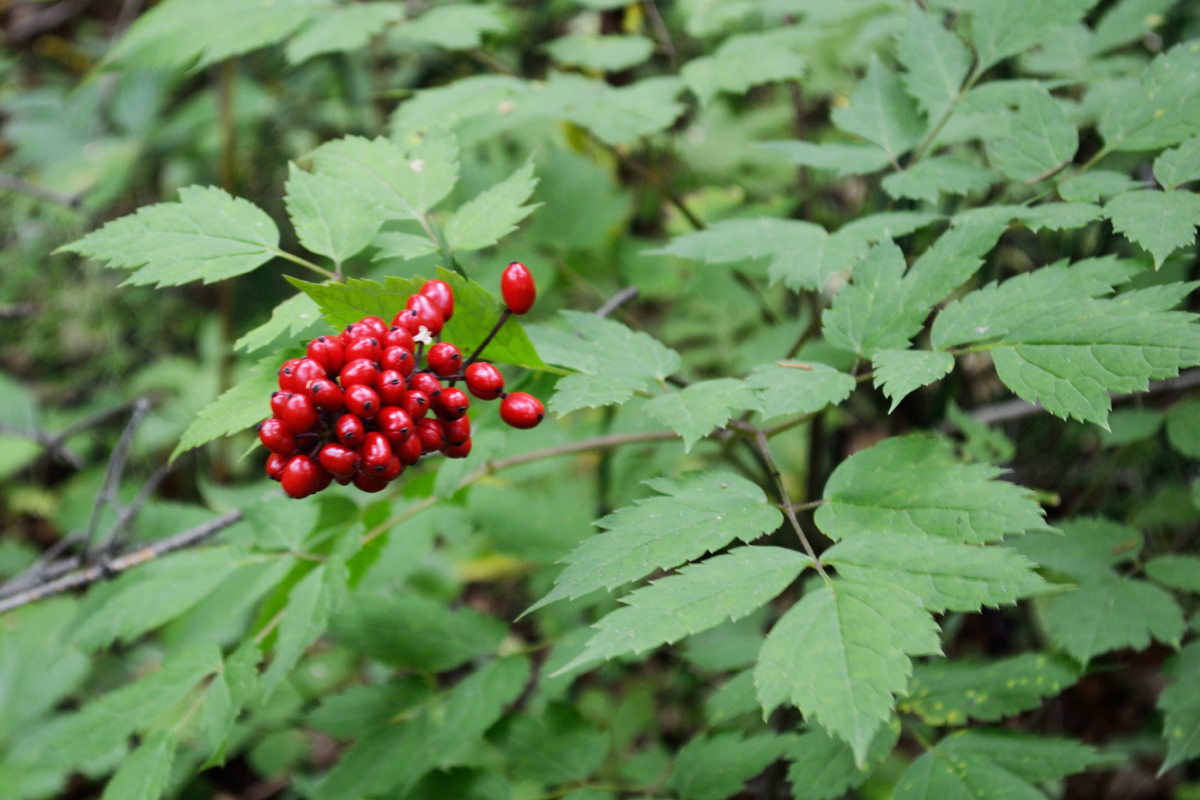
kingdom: Plantae
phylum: Tracheophyta
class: Magnoliopsida
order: Ranunculales
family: Ranunculaceae
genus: Actaea
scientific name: Actaea erythrocarpa
